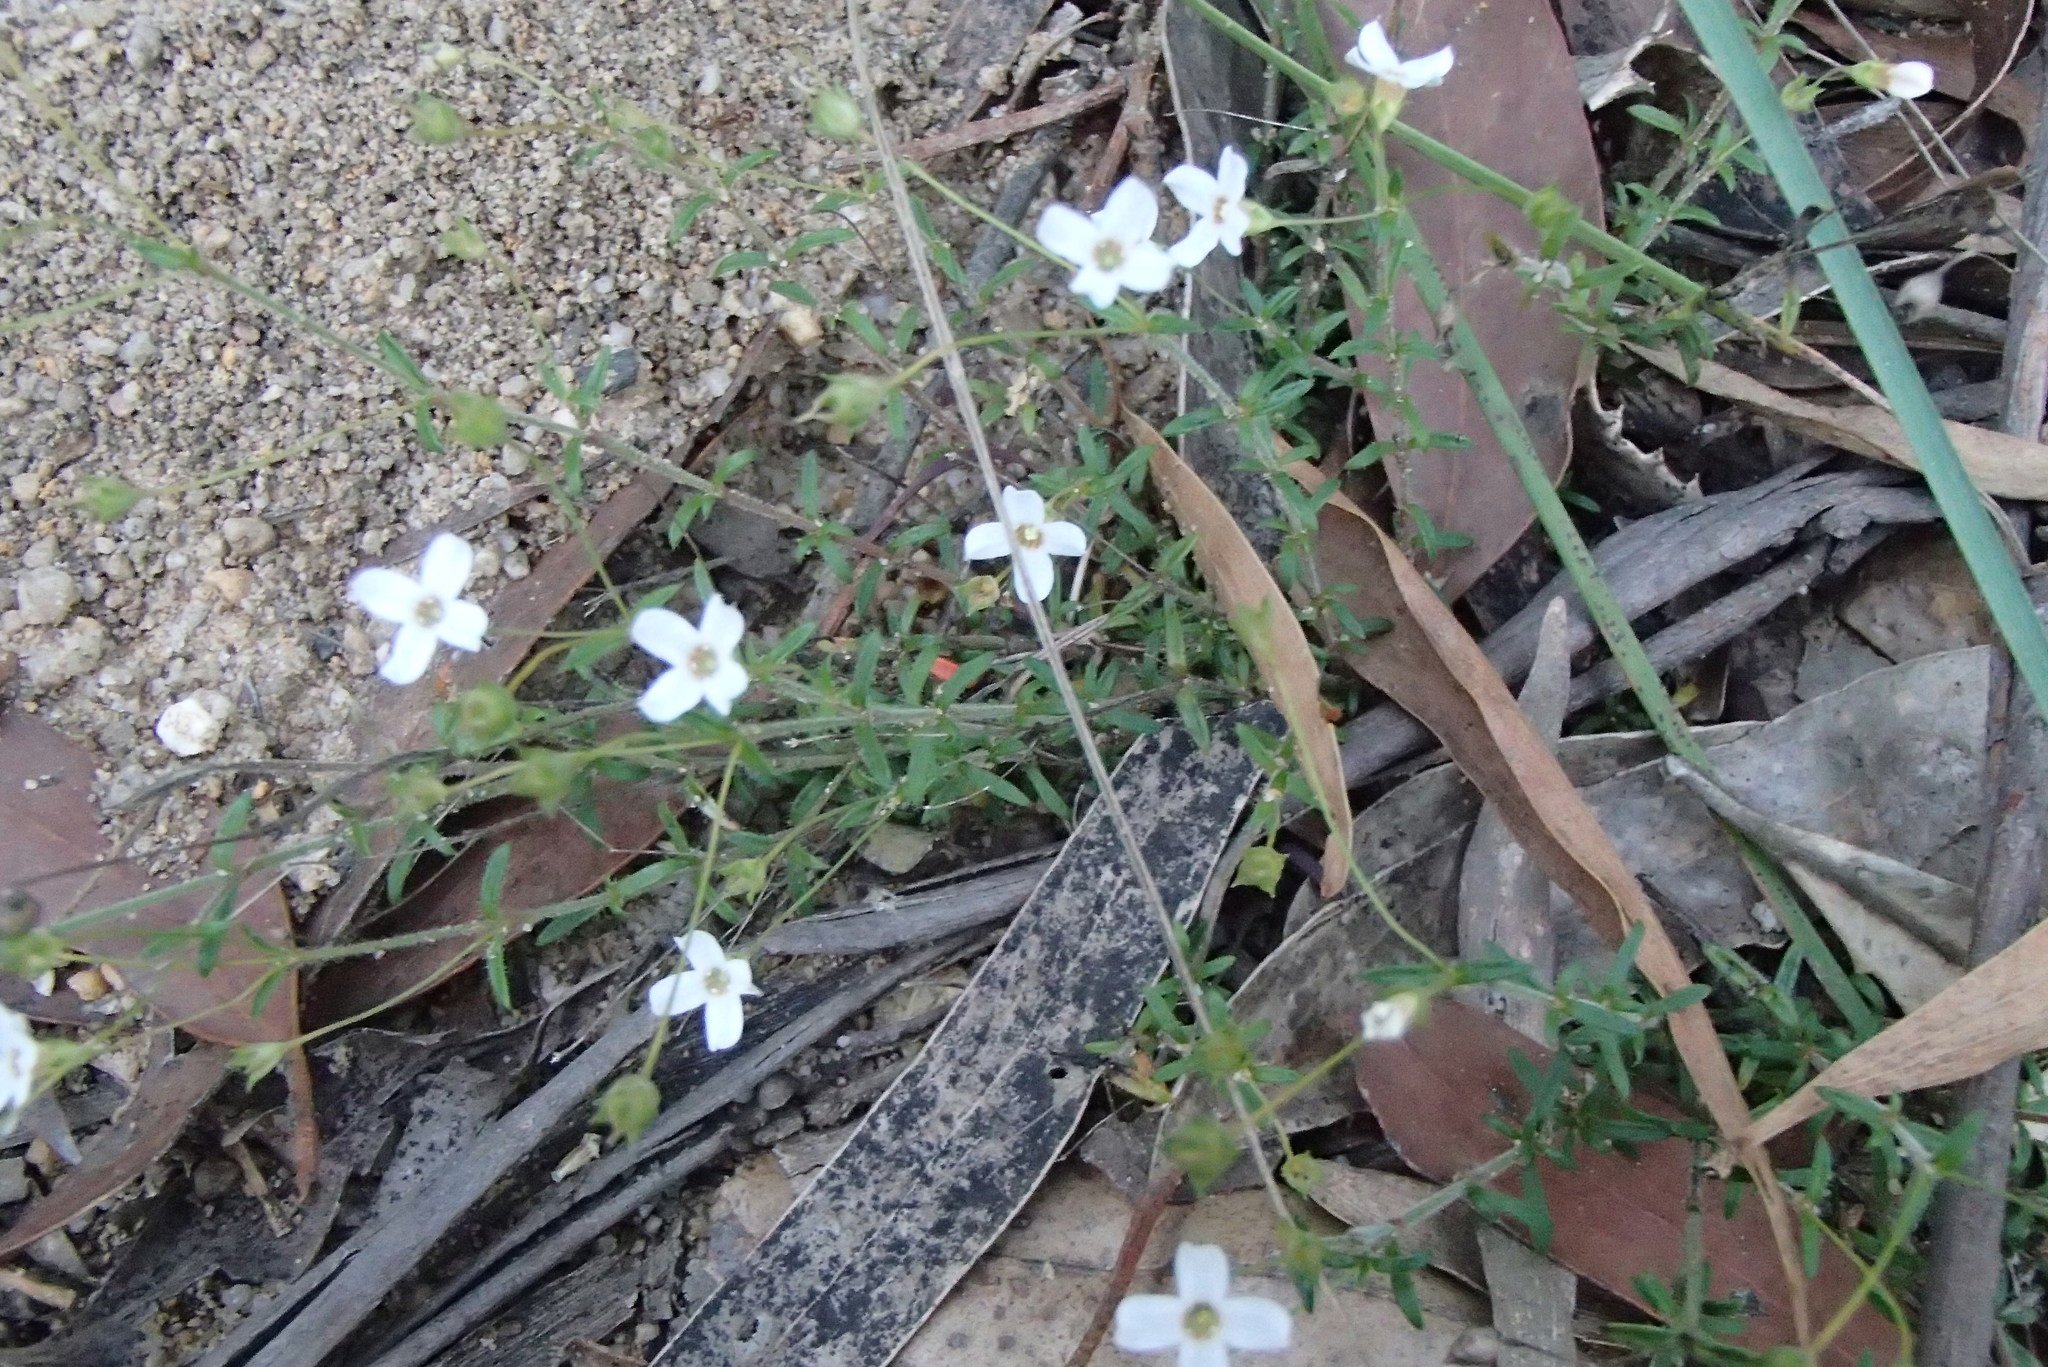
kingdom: Plantae
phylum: Tracheophyta
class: Magnoliopsida
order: Gentianales
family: Loganiaceae
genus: Mitrasacme
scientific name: Mitrasacme polymorpha
